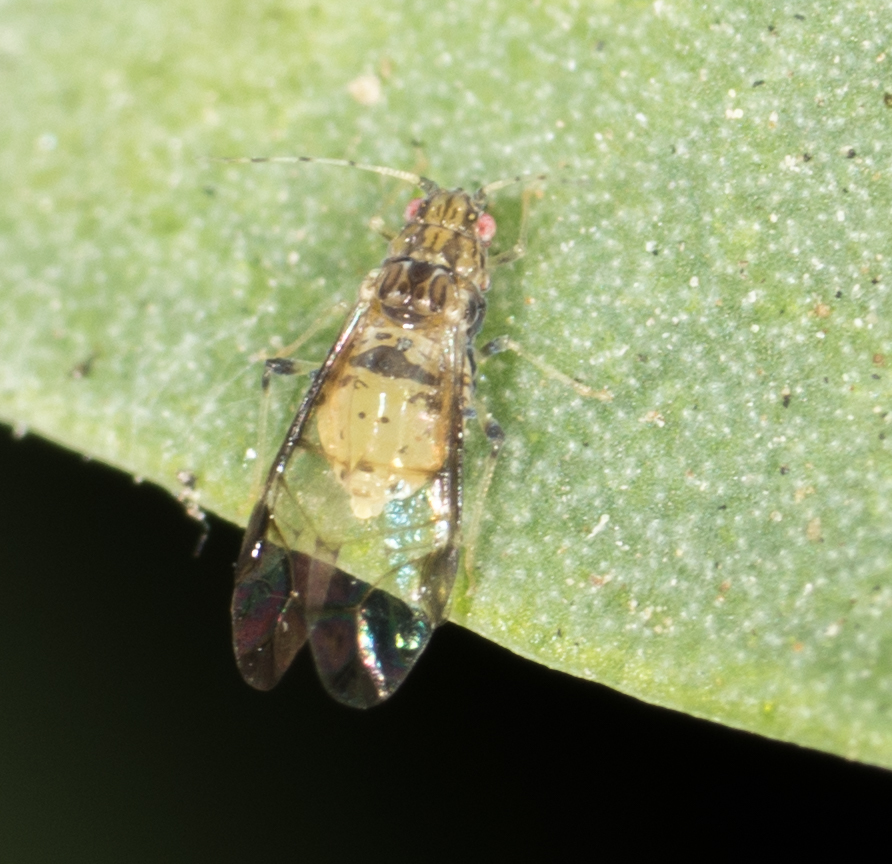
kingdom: Animalia
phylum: Arthropoda
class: Insecta
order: Hemiptera
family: Aphididae
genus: Sarucallis
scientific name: Sarucallis kahawaluokalani
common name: Crapemyrtle aphid
